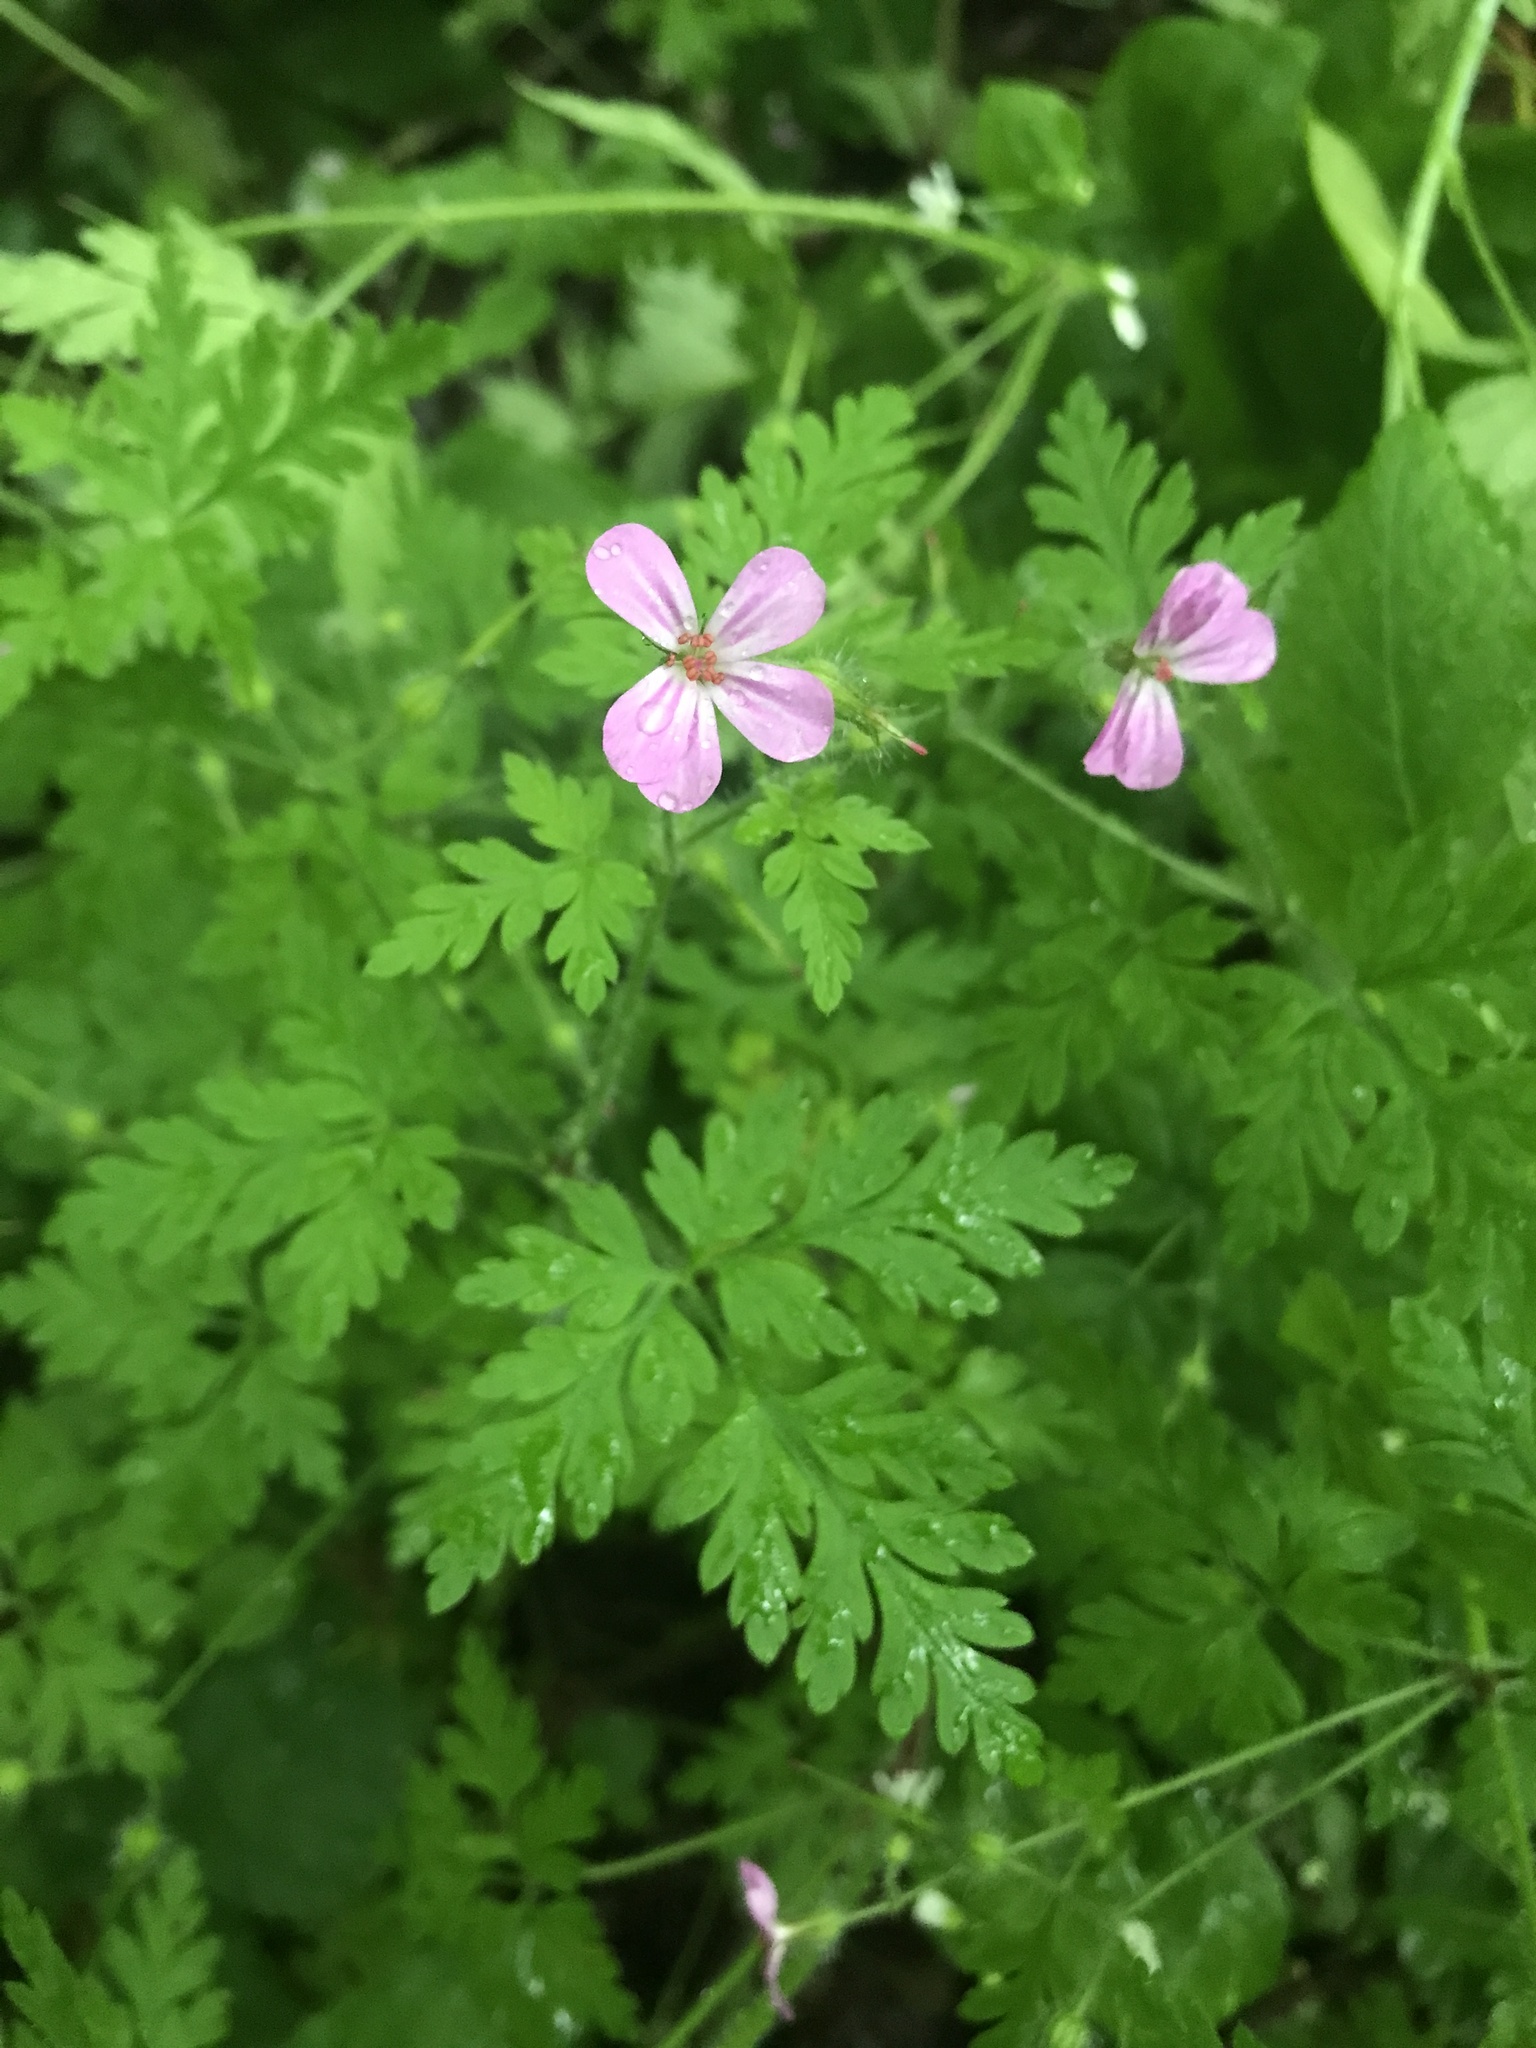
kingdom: Plantae
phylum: Tracheophyta
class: Magnoliopsida
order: Geraniales
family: Geraniaceae
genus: Geranium
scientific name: Geranium robertianum
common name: Herb-robert
